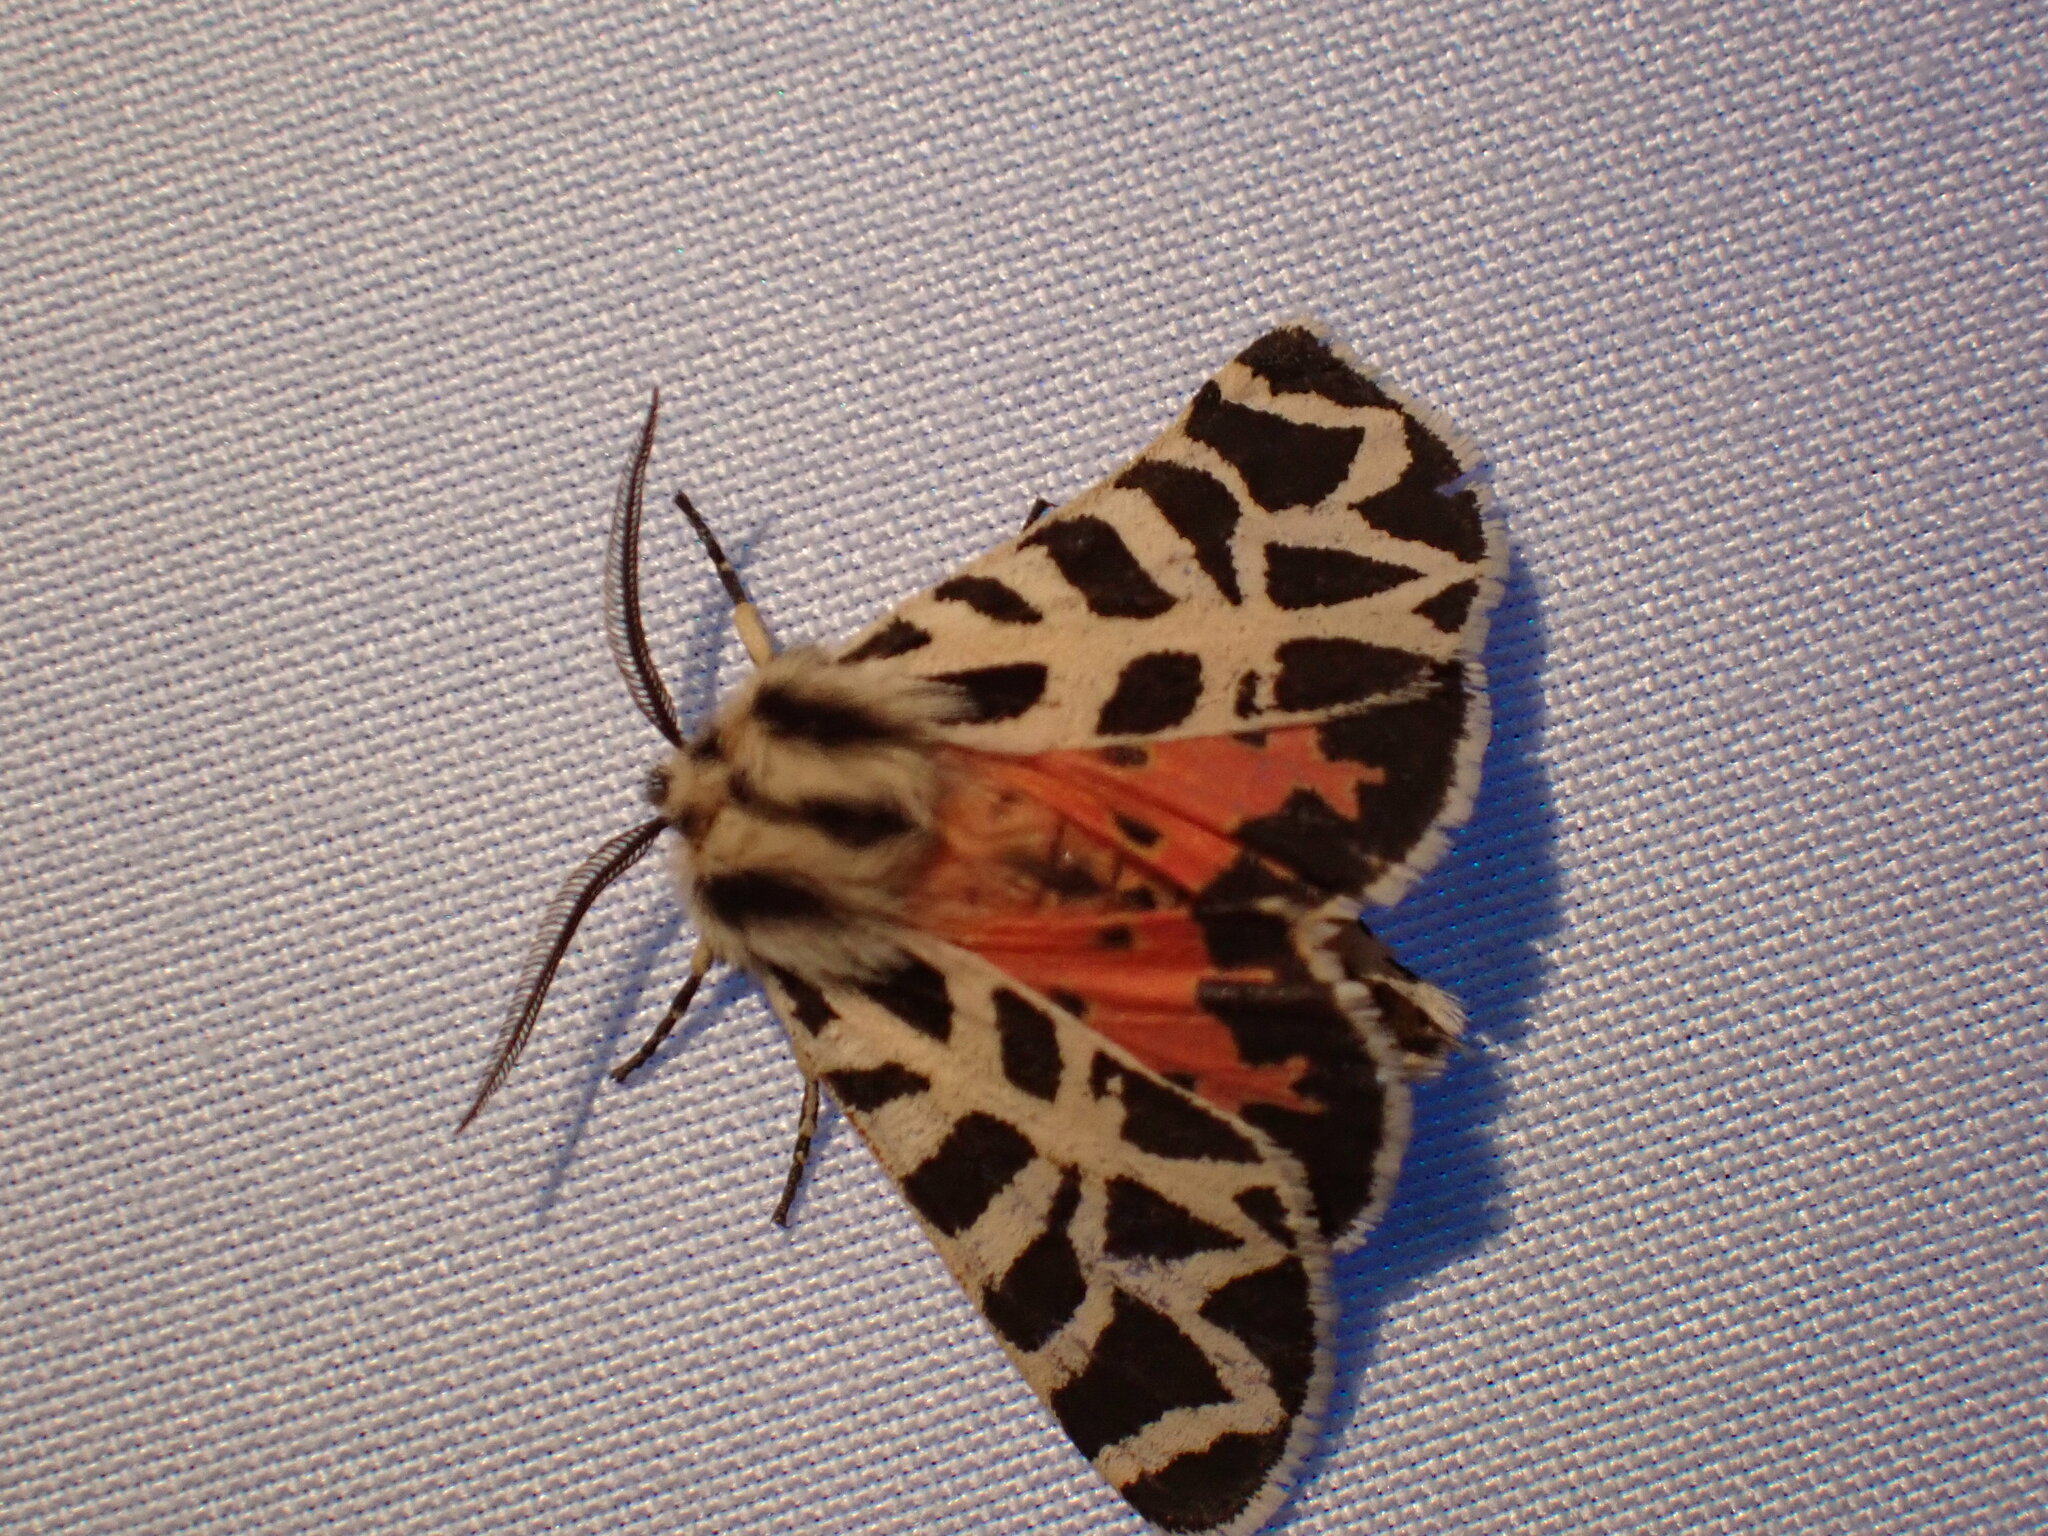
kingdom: Animalia
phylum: Arthropoda
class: Insecta
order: Lepidoptera
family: Erebidae
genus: Apantesis
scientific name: Apantesis
